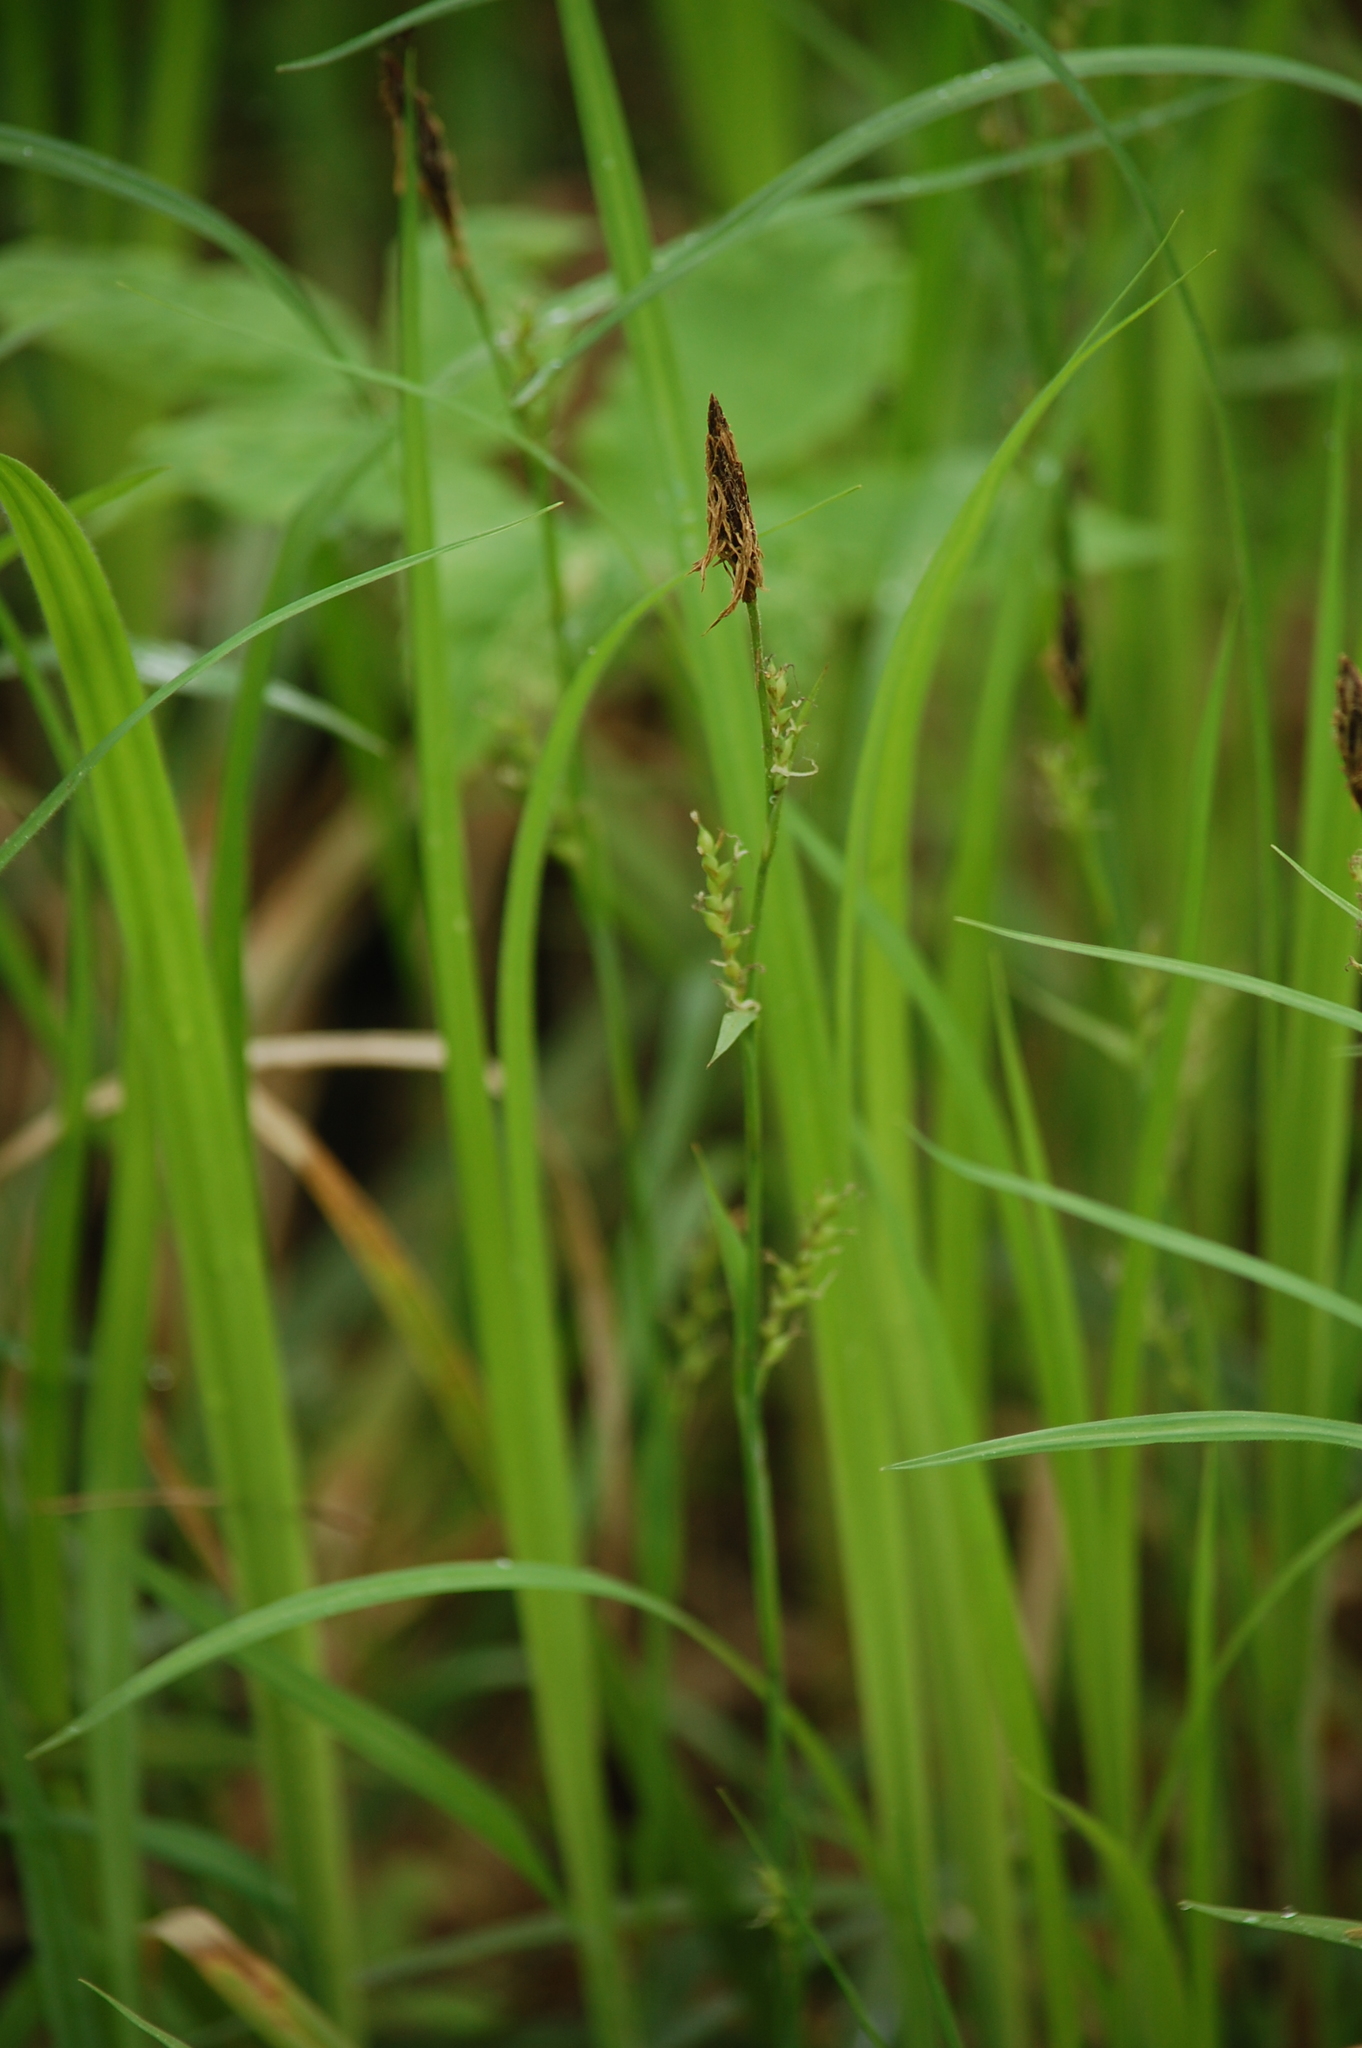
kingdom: Plantae
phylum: Tracheophyta
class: Liliopsida
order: Poales
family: Cyperaceae
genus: Carex
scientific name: Carex pilosa
